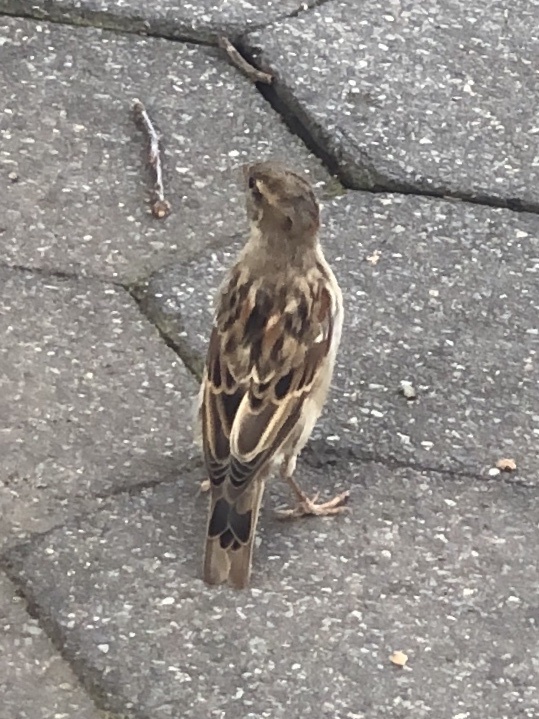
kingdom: Animalia
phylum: Chordata
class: Aves
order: Passeriformes
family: Passeridae
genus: Passer
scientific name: Passer domesticus
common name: House sparrow
